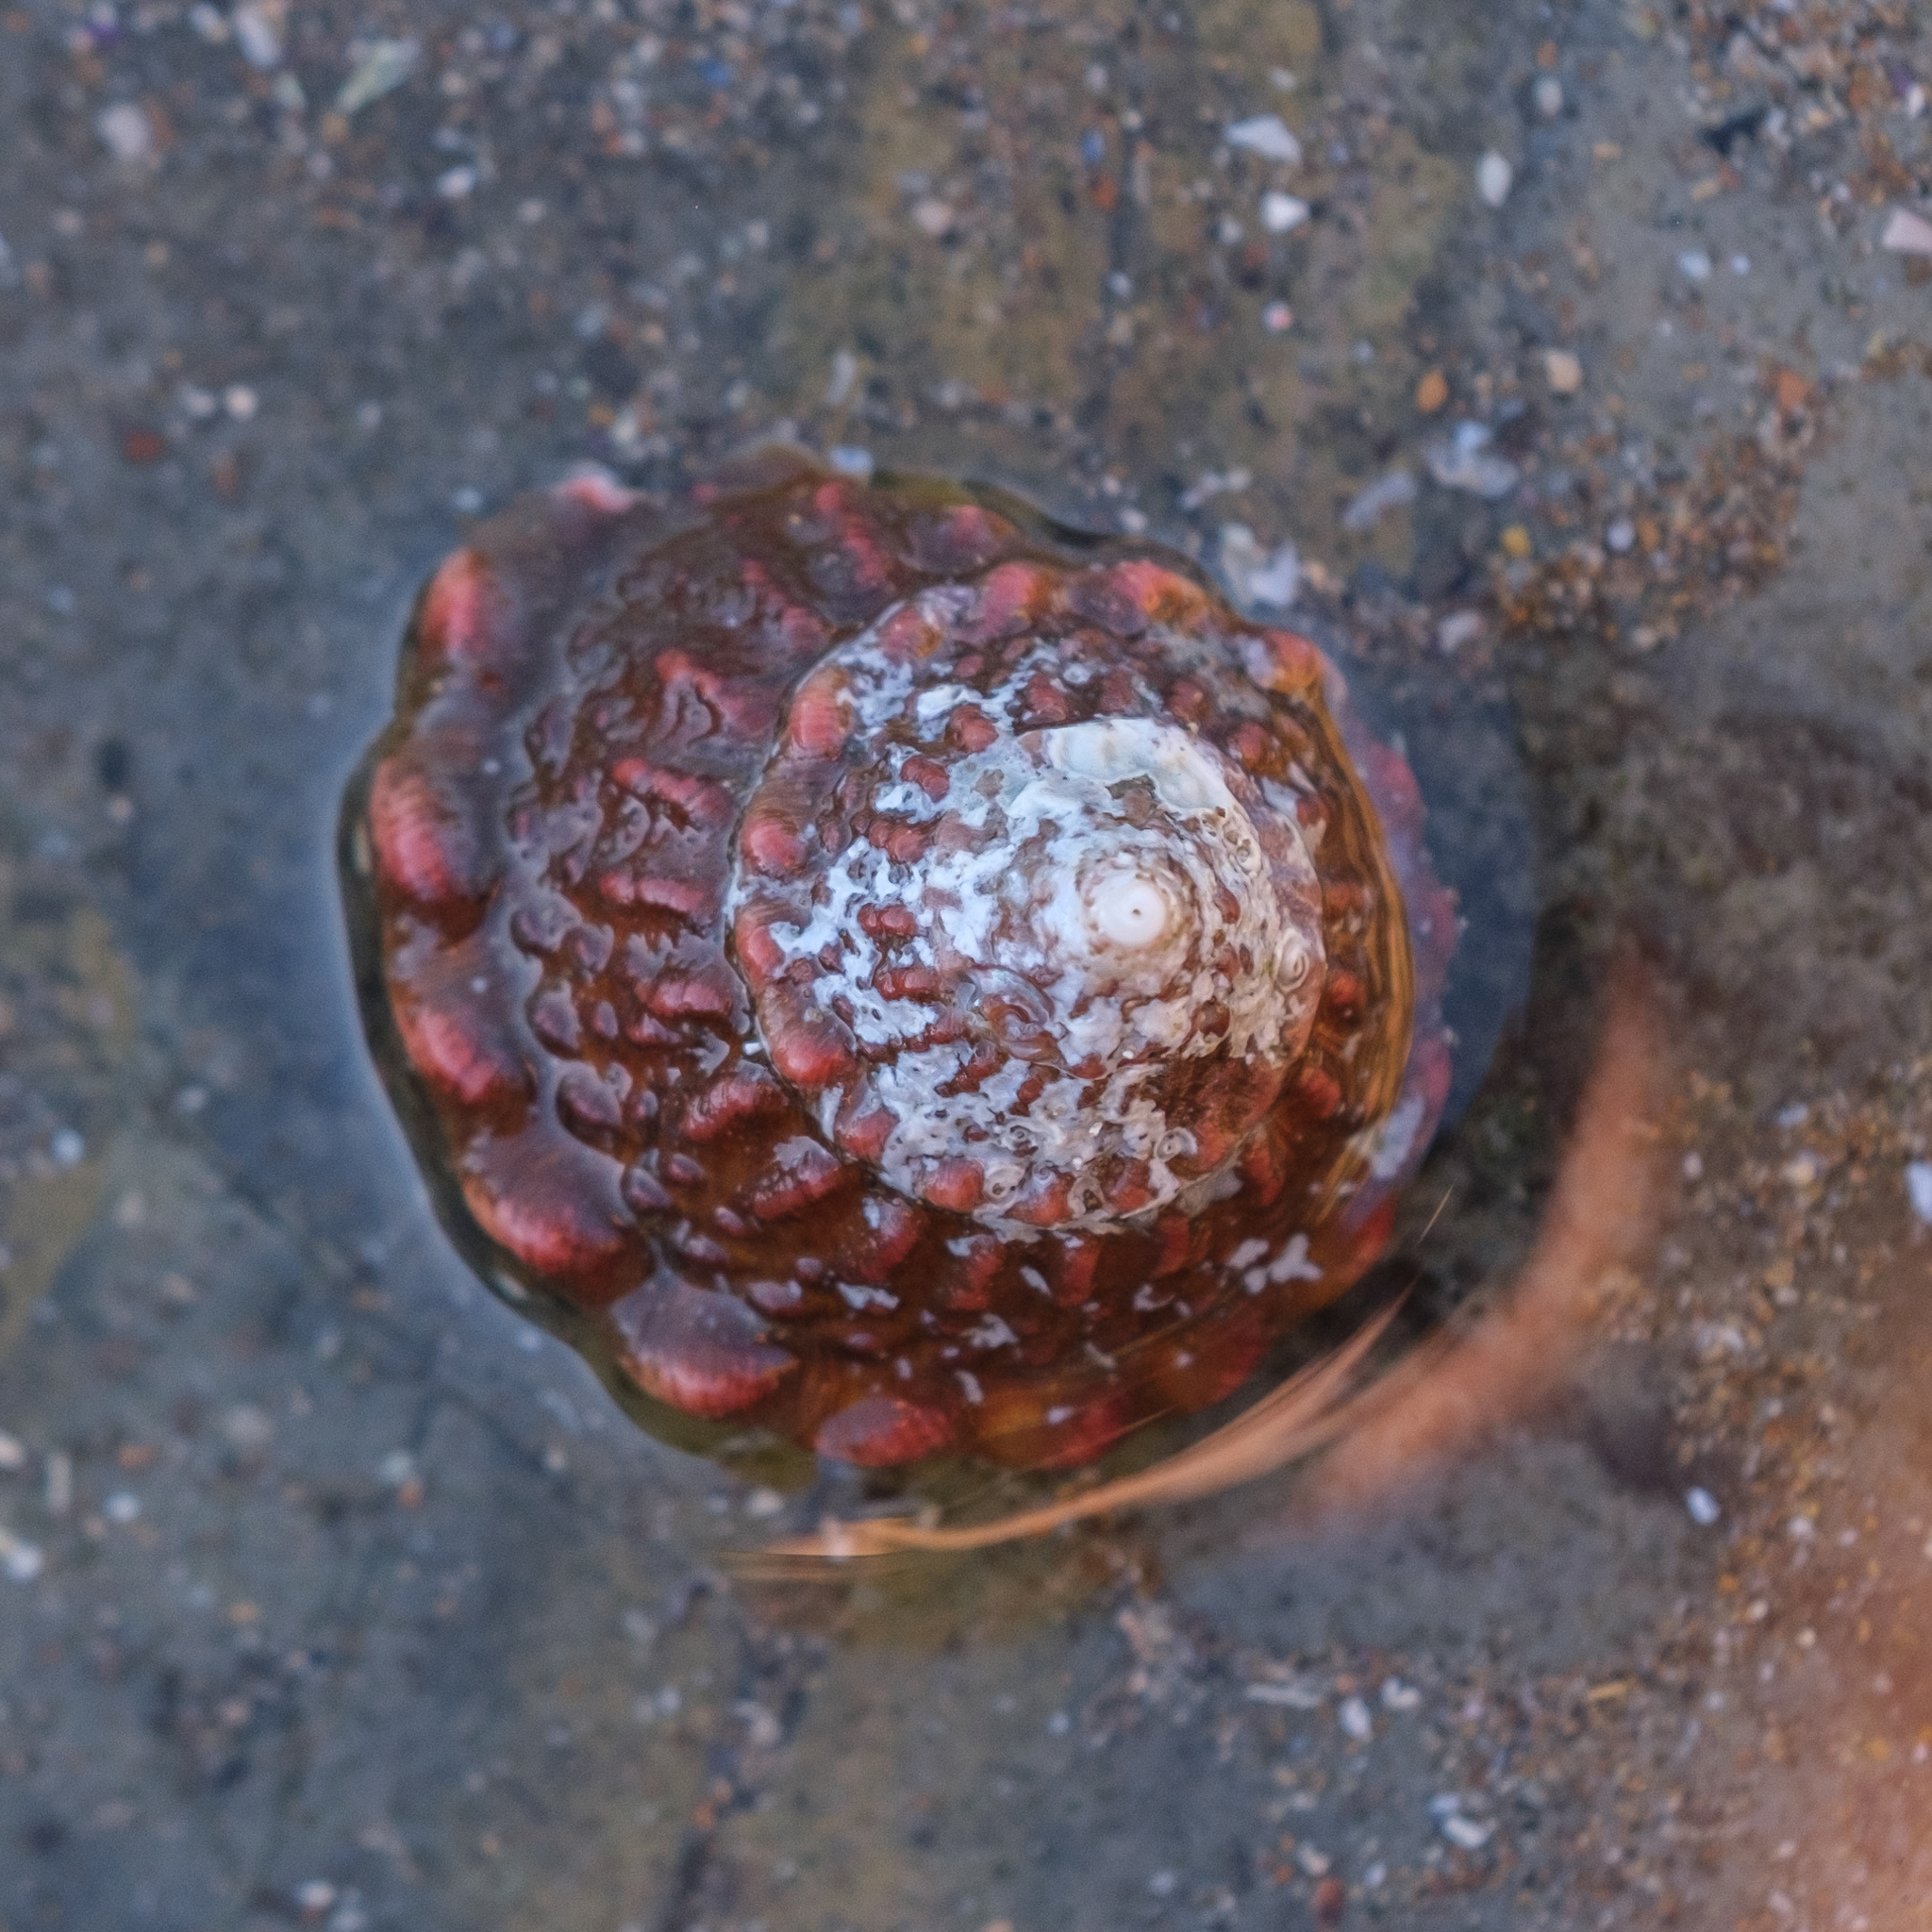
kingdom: Animalia
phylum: Mollusca
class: Gastropoda
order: Trochida
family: Turbinidae
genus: Megastraea
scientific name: Megastraea undosa
